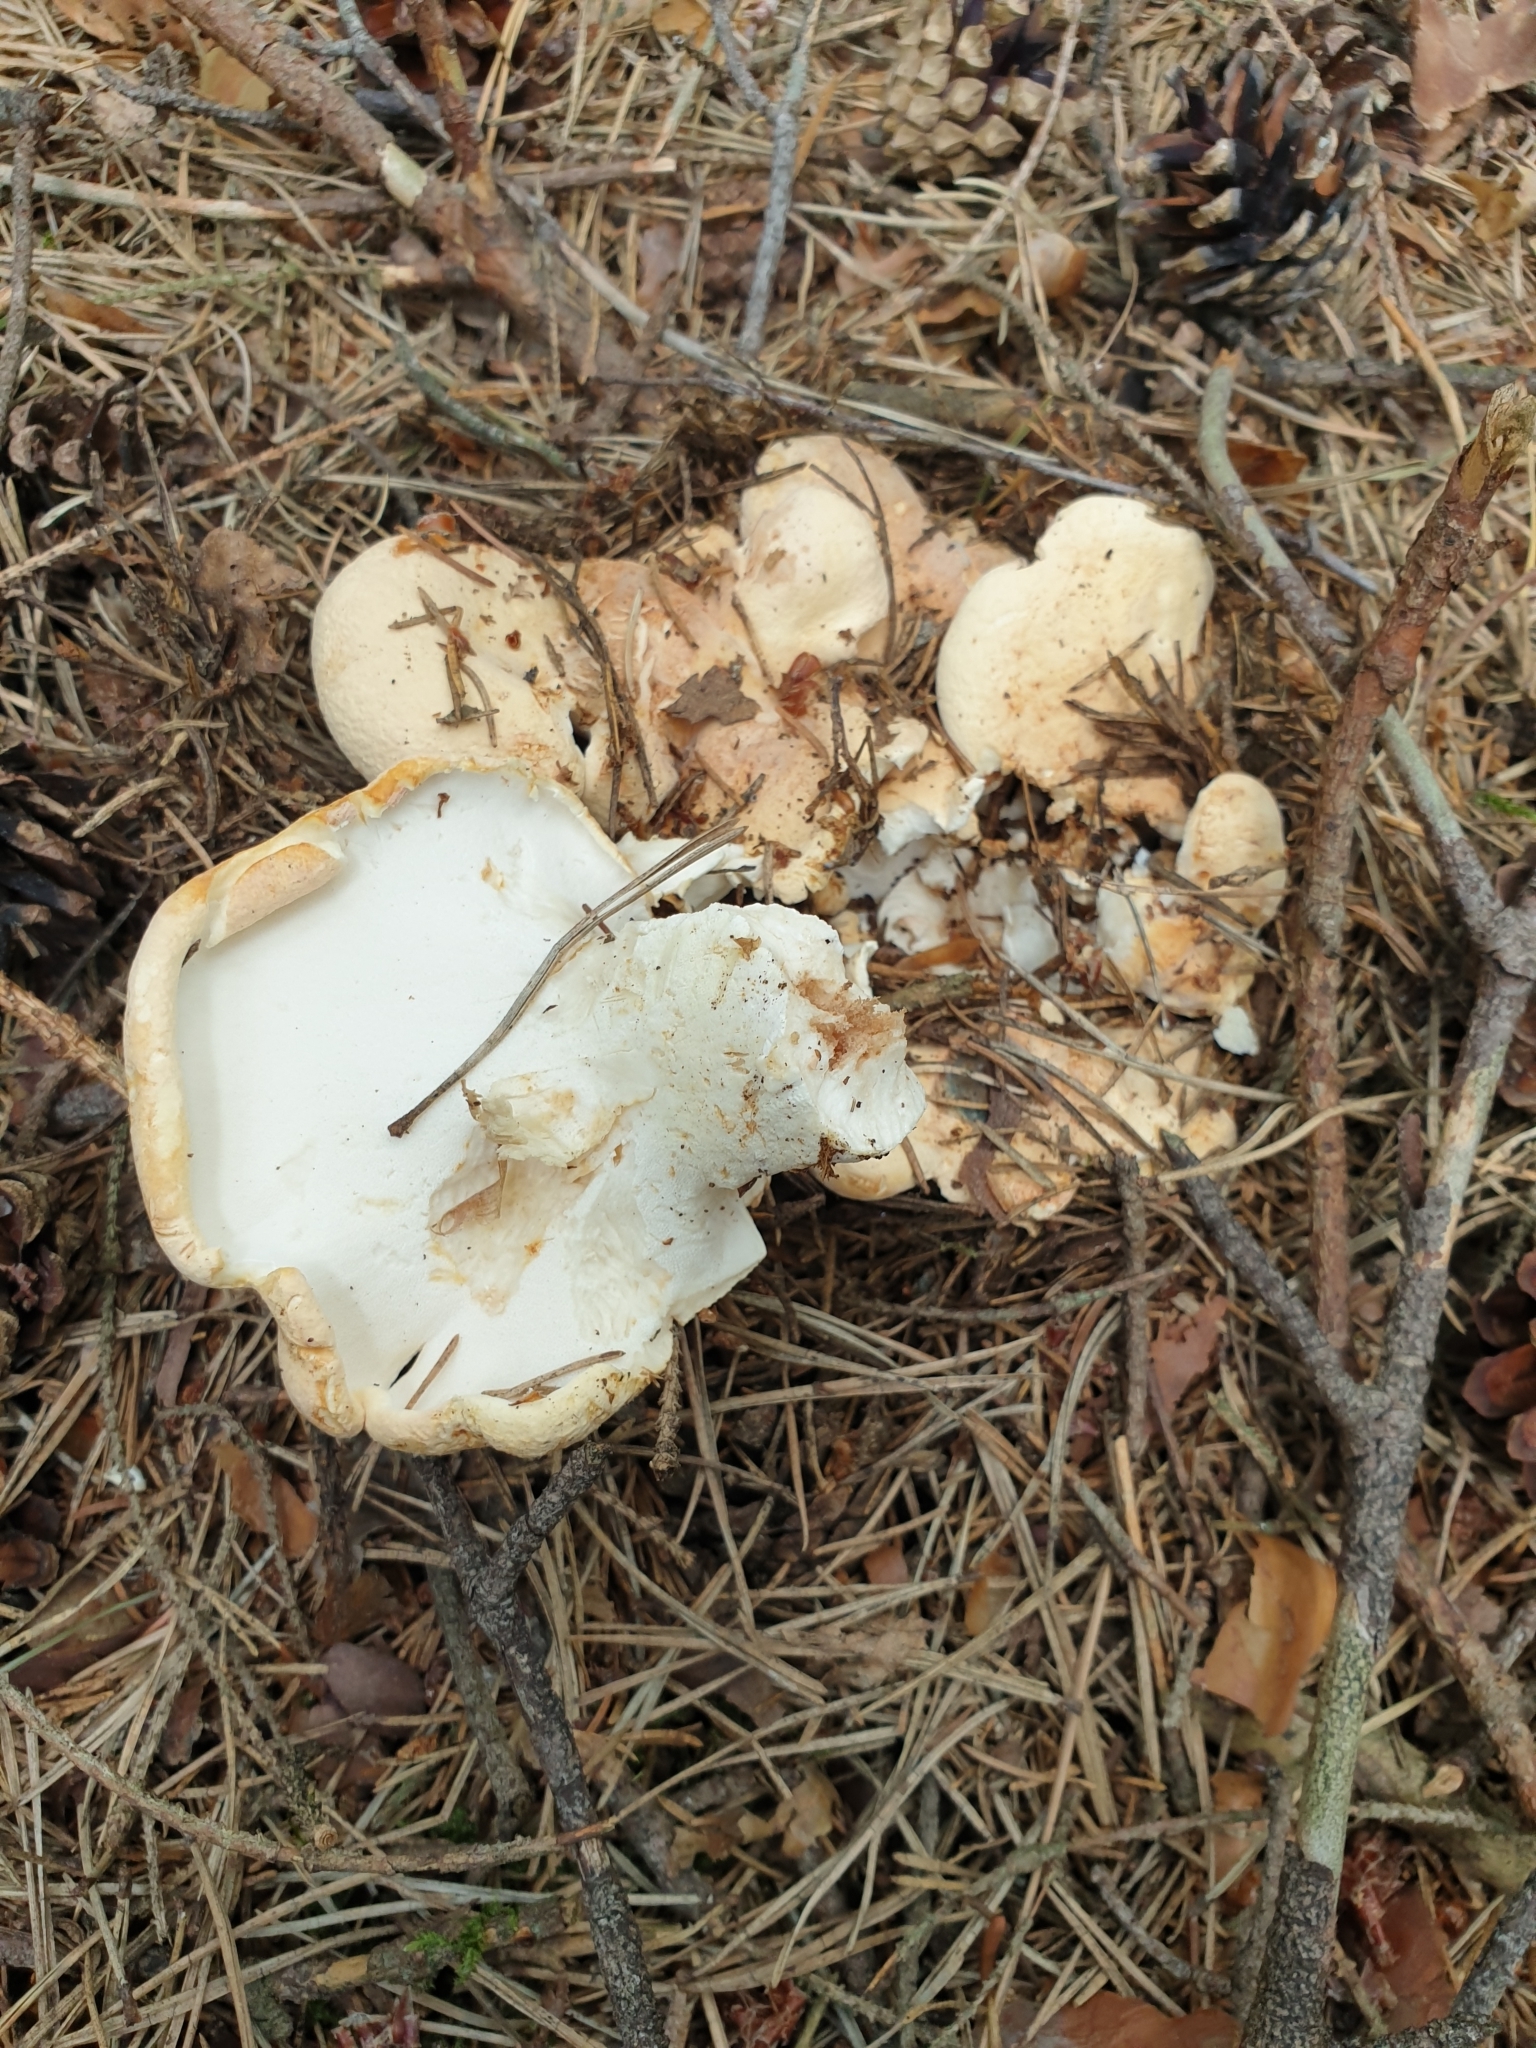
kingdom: Fungi
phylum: Basidiomycota
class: Agaricomycetes
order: Russulales
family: Albatrellaceae
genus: Albatrellopsis
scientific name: Albatrellopsis confluens
